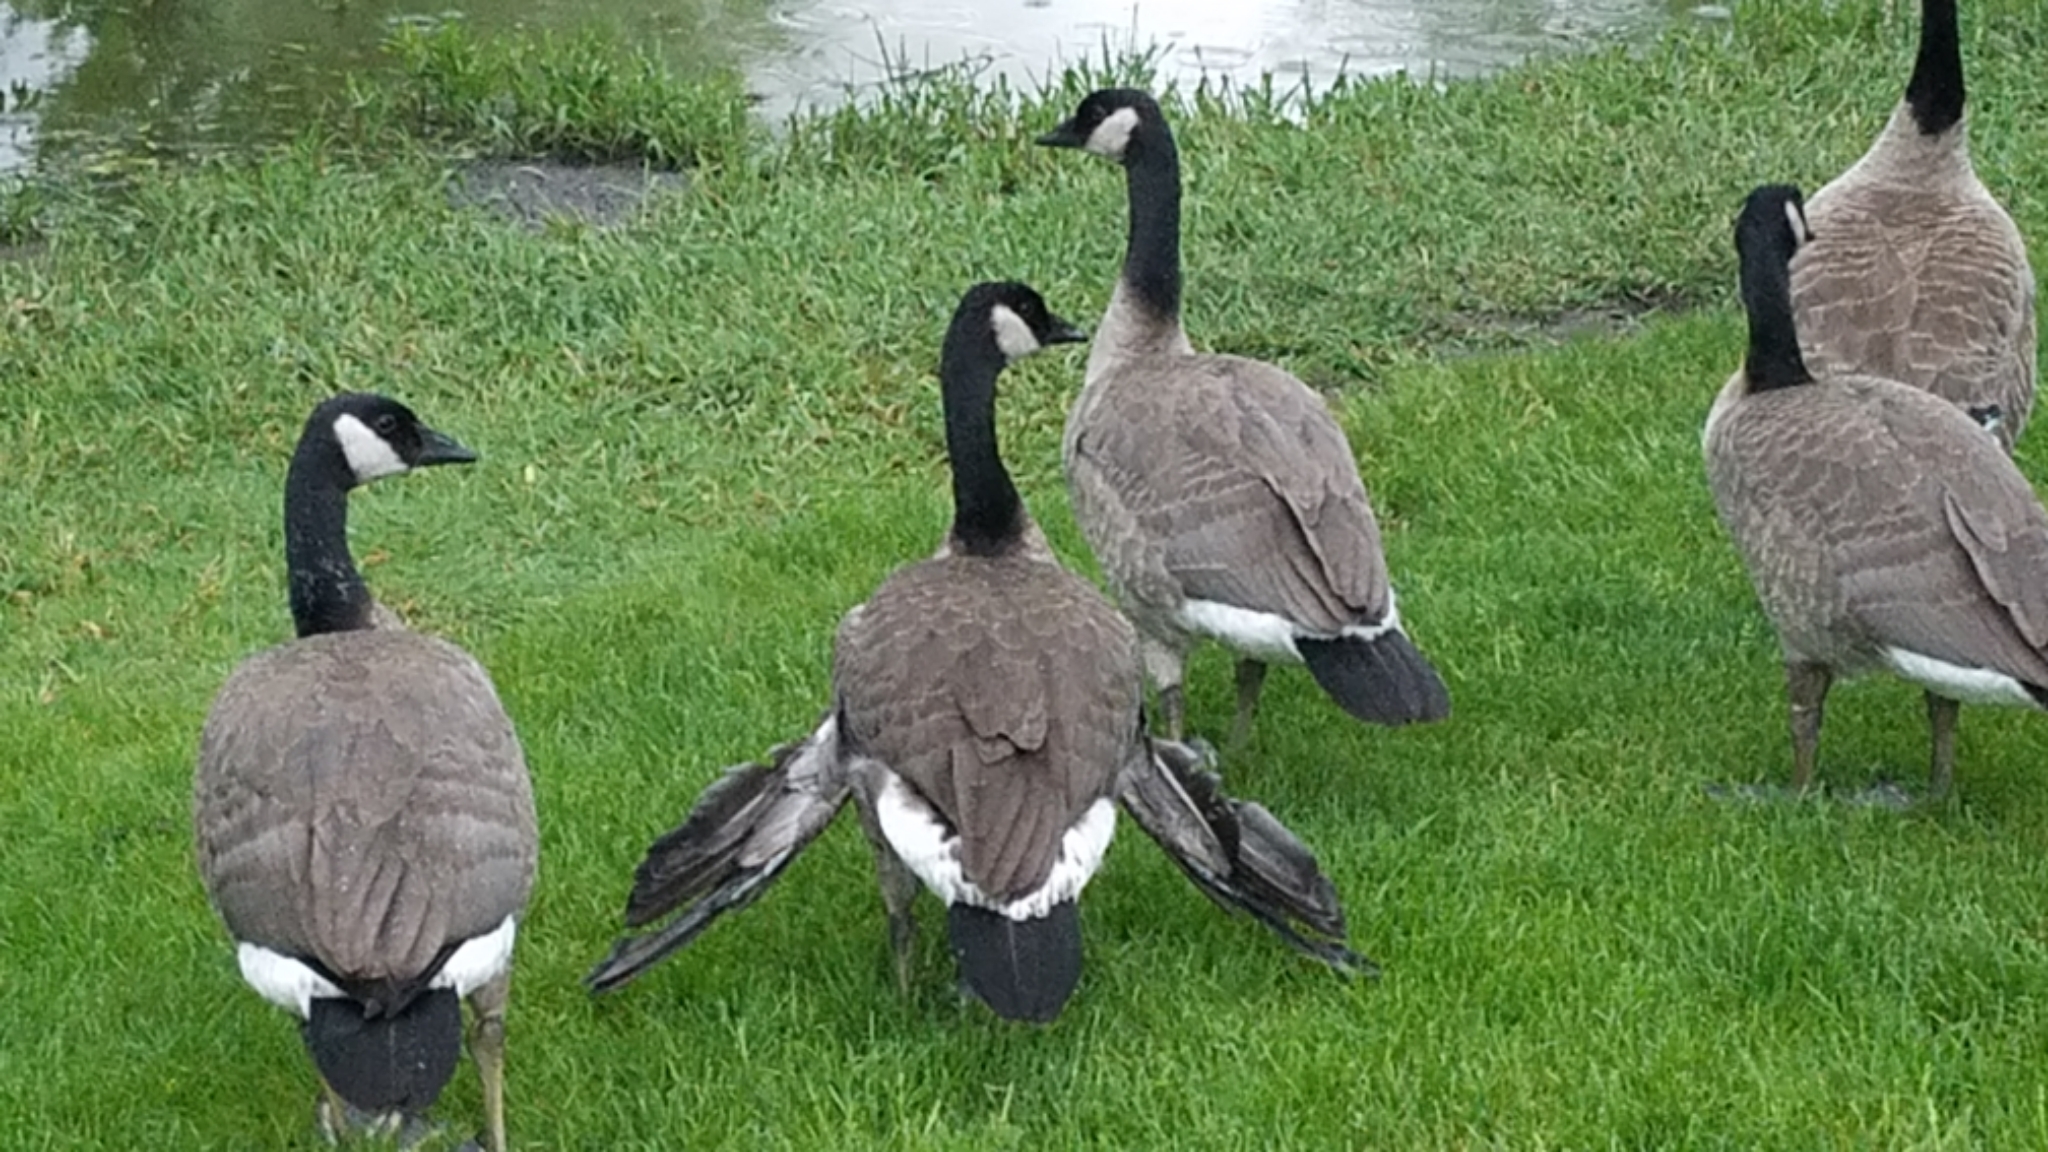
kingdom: Animalia
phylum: Chordata
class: Aves
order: Anseriformes
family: Anatidae
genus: Branta
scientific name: Branta canadensis
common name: Canada goose
